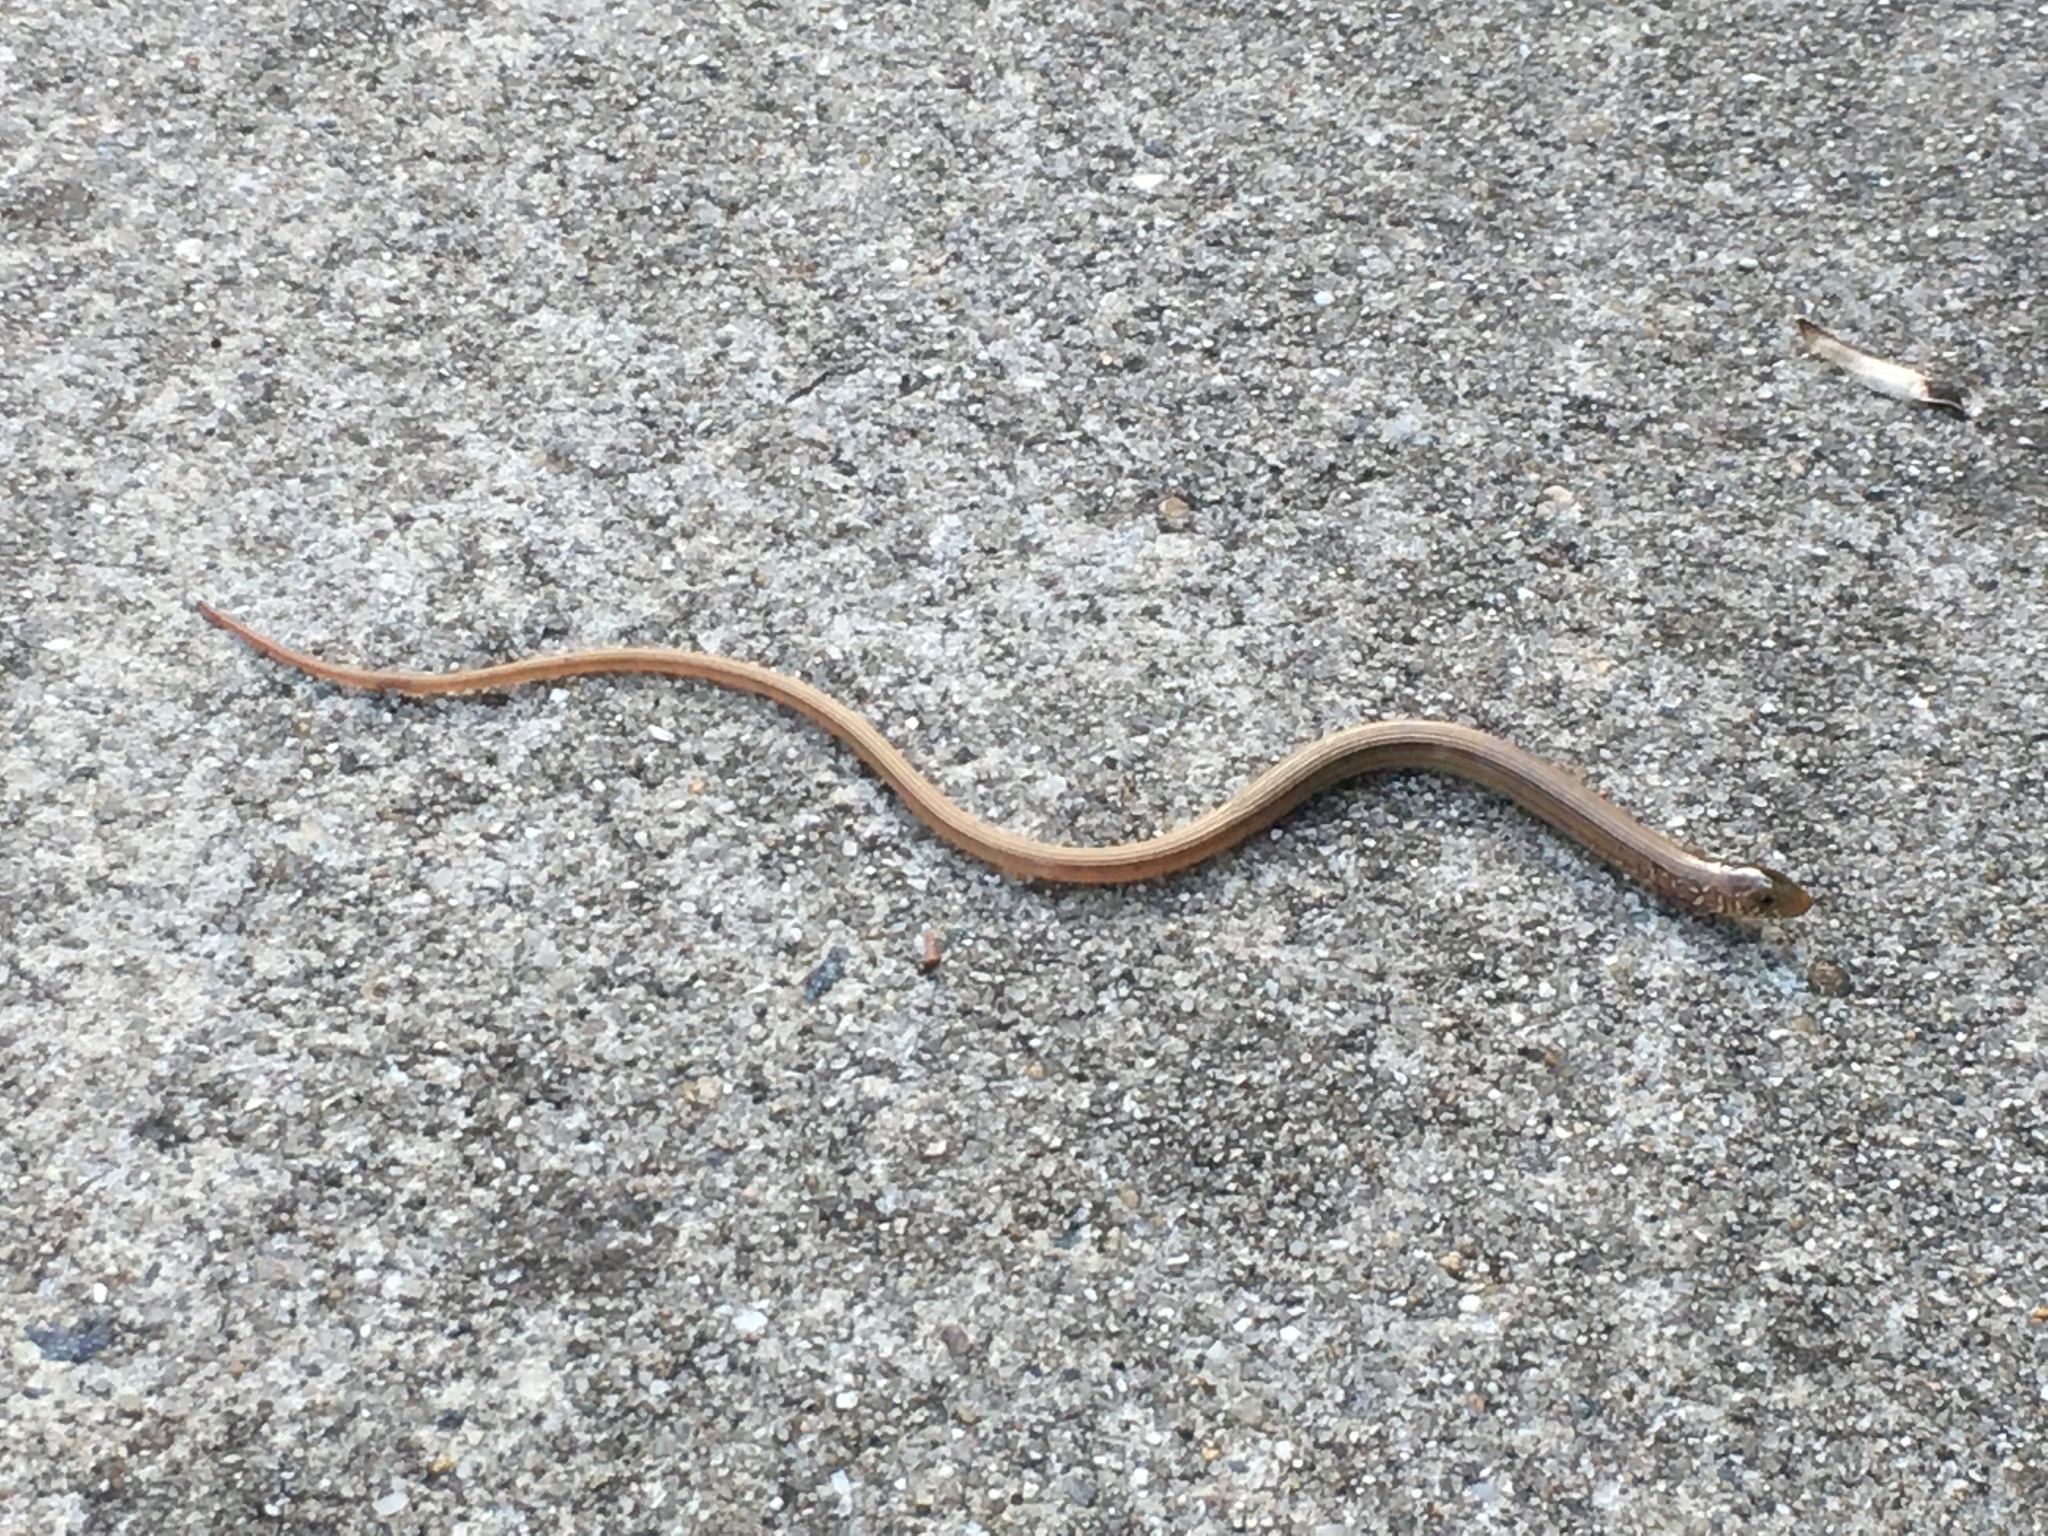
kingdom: Animalia
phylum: Chordata
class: Squamata
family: Anguidae
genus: Ophisaurus
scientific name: Ophisaurus ventralis
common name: Eastern glass lizard
